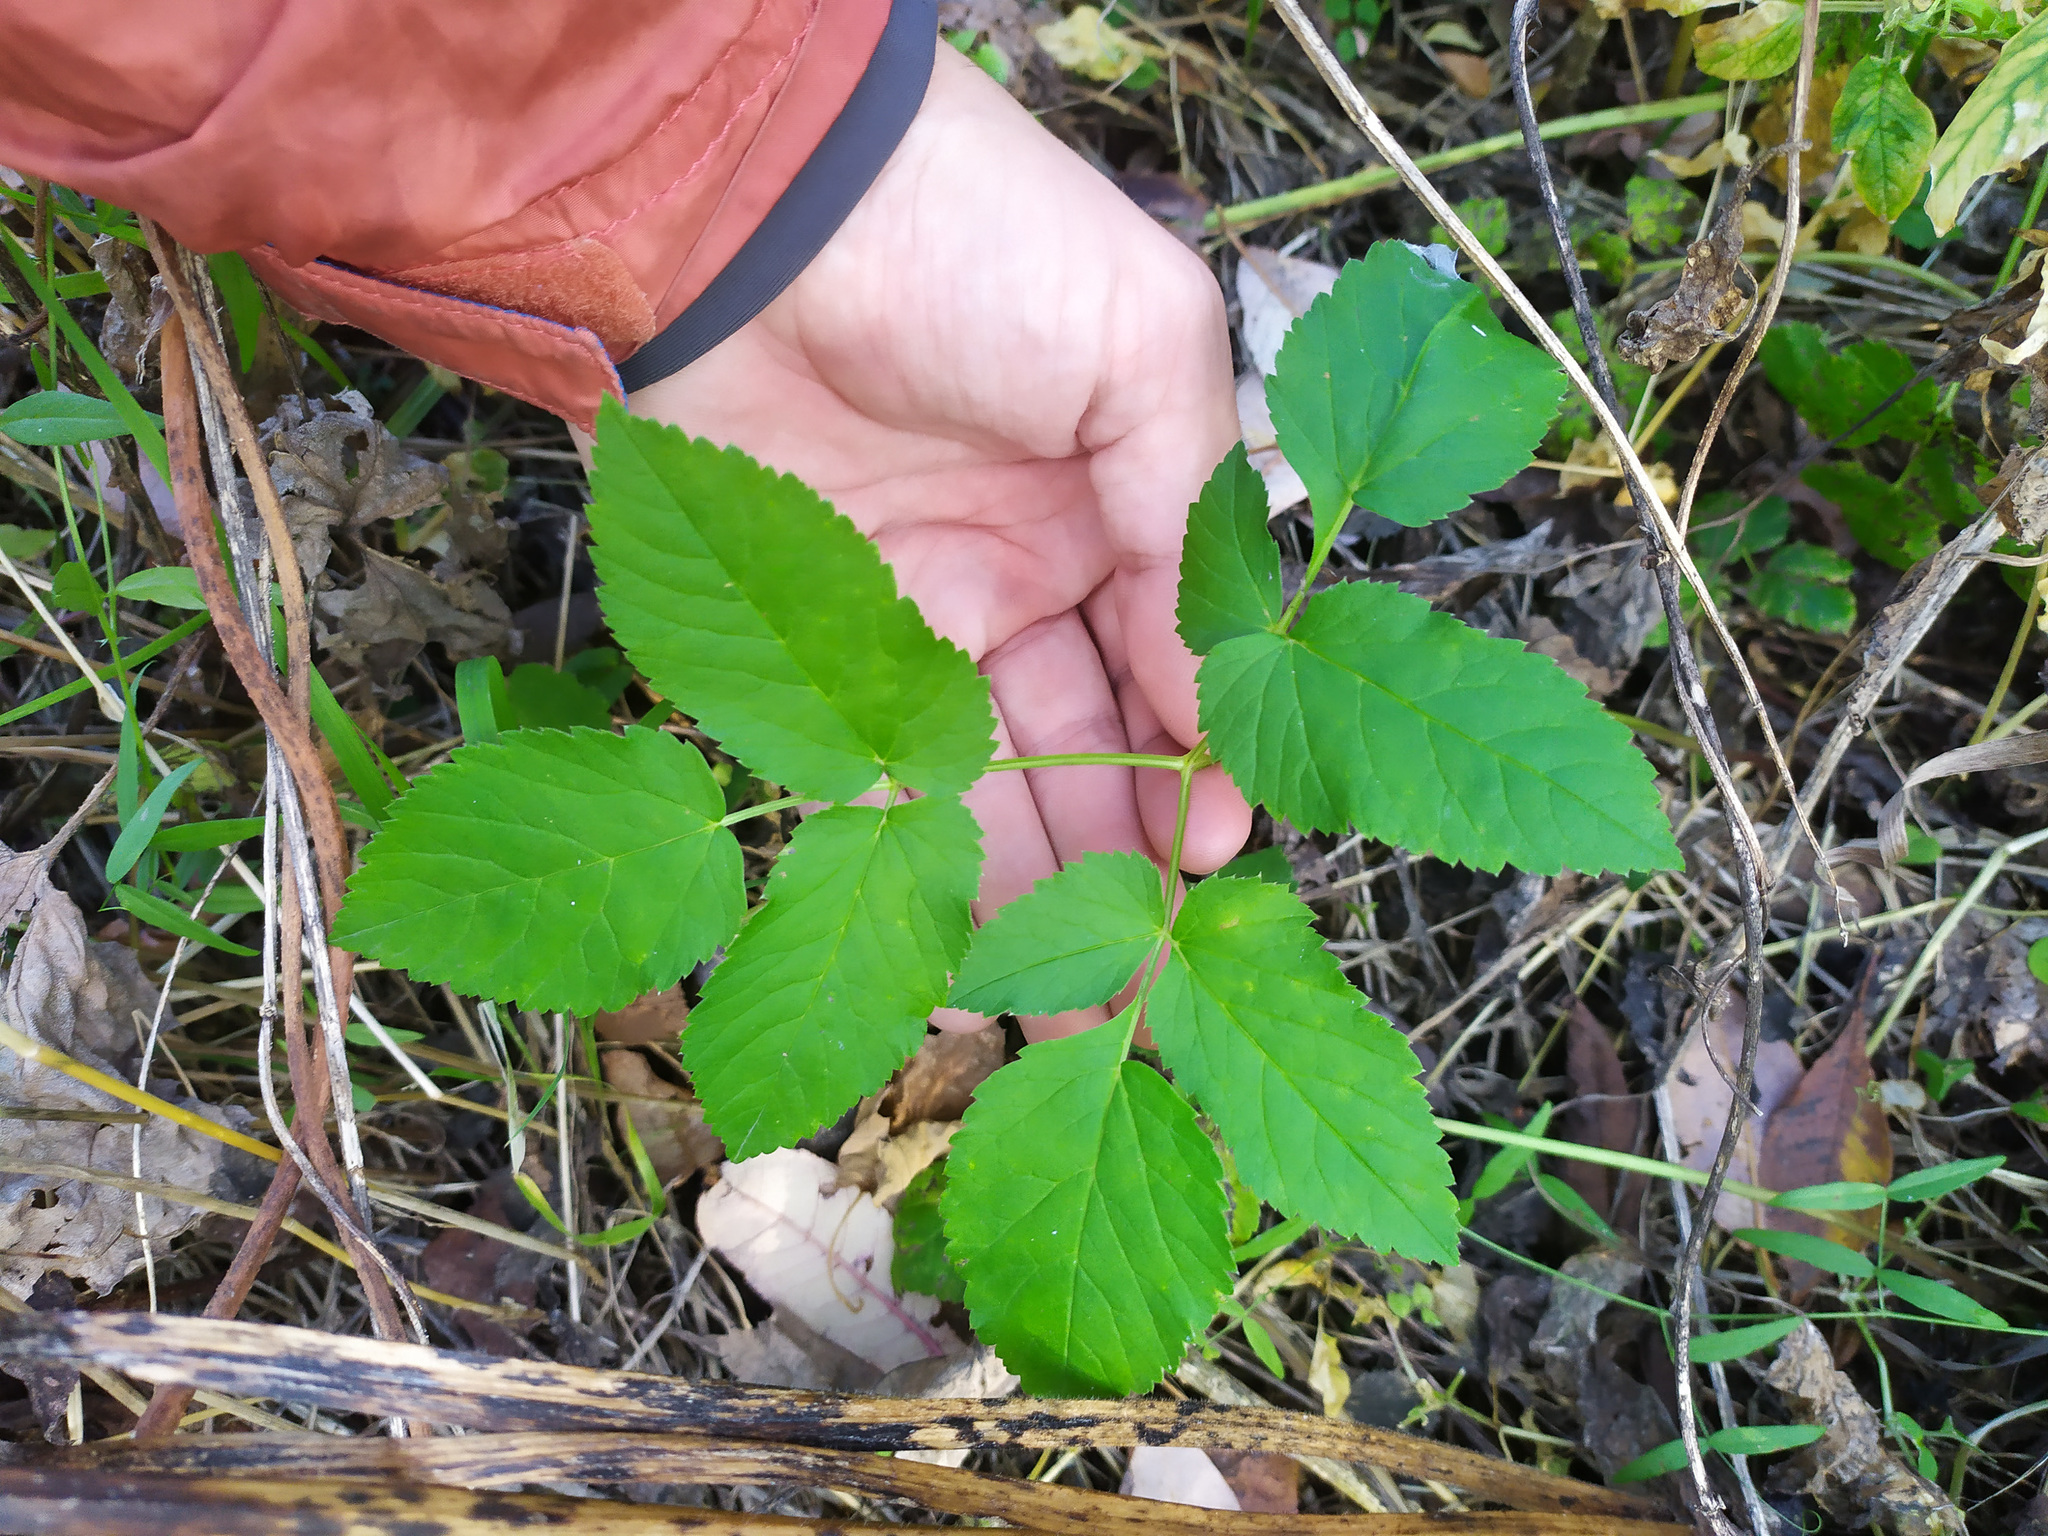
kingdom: Plantae
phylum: Tracheophyta
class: Magnoliopsida
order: Apiales
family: Apiaceae
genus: Aegopodium
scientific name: Aegopodium podagraria
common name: Ground-elder
